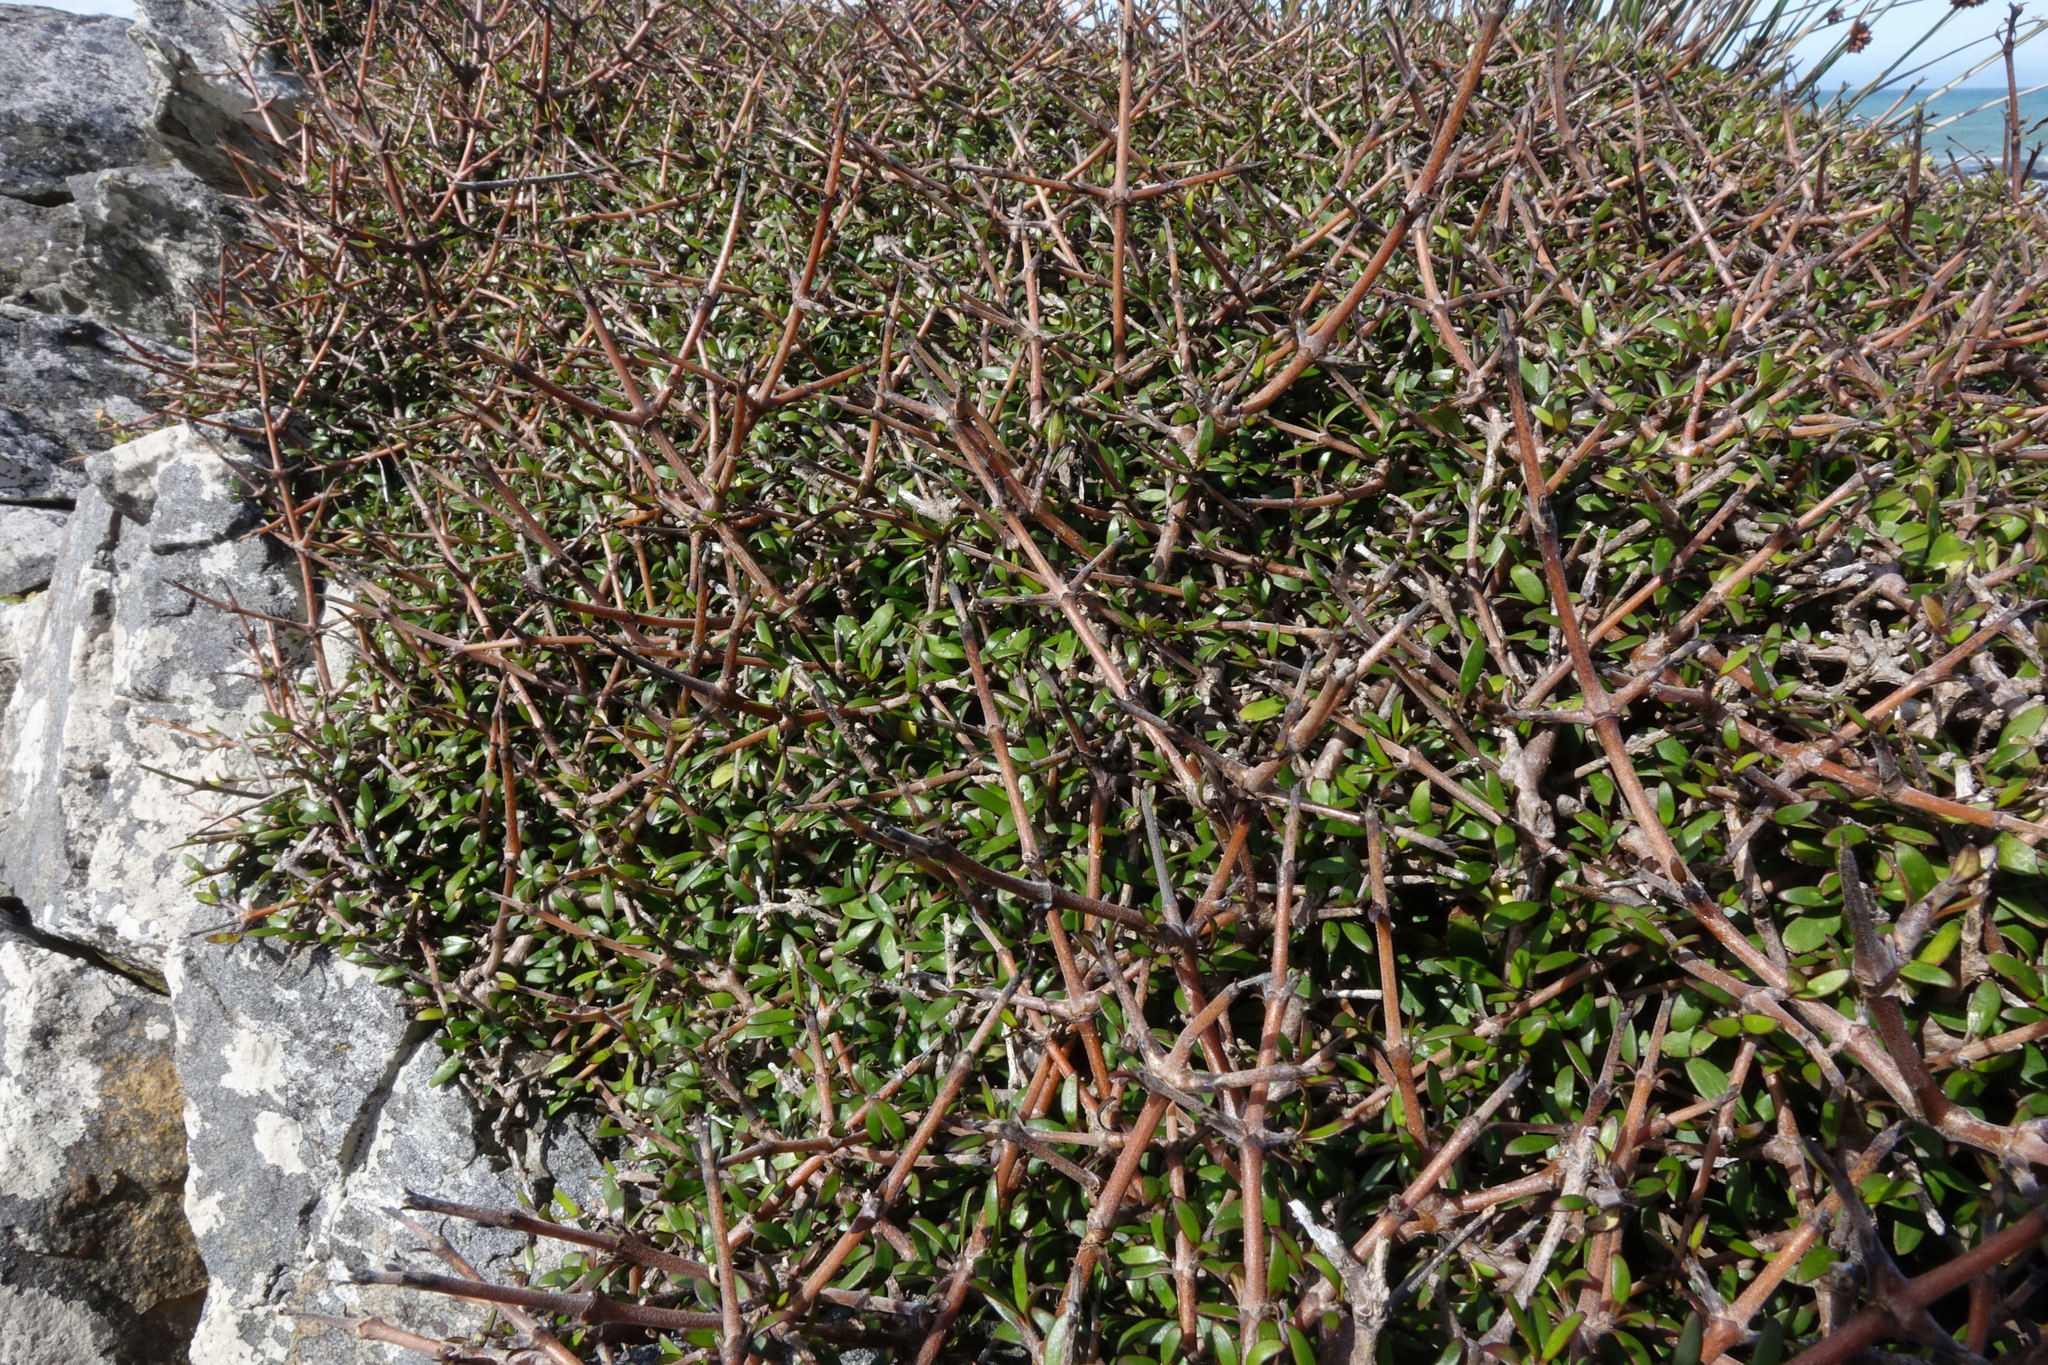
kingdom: Plantae
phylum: Tracheophyta
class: Magnoliopsida
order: Gentianales
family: Rubiaceae
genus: Coprosma
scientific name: Coprosma propinqua
